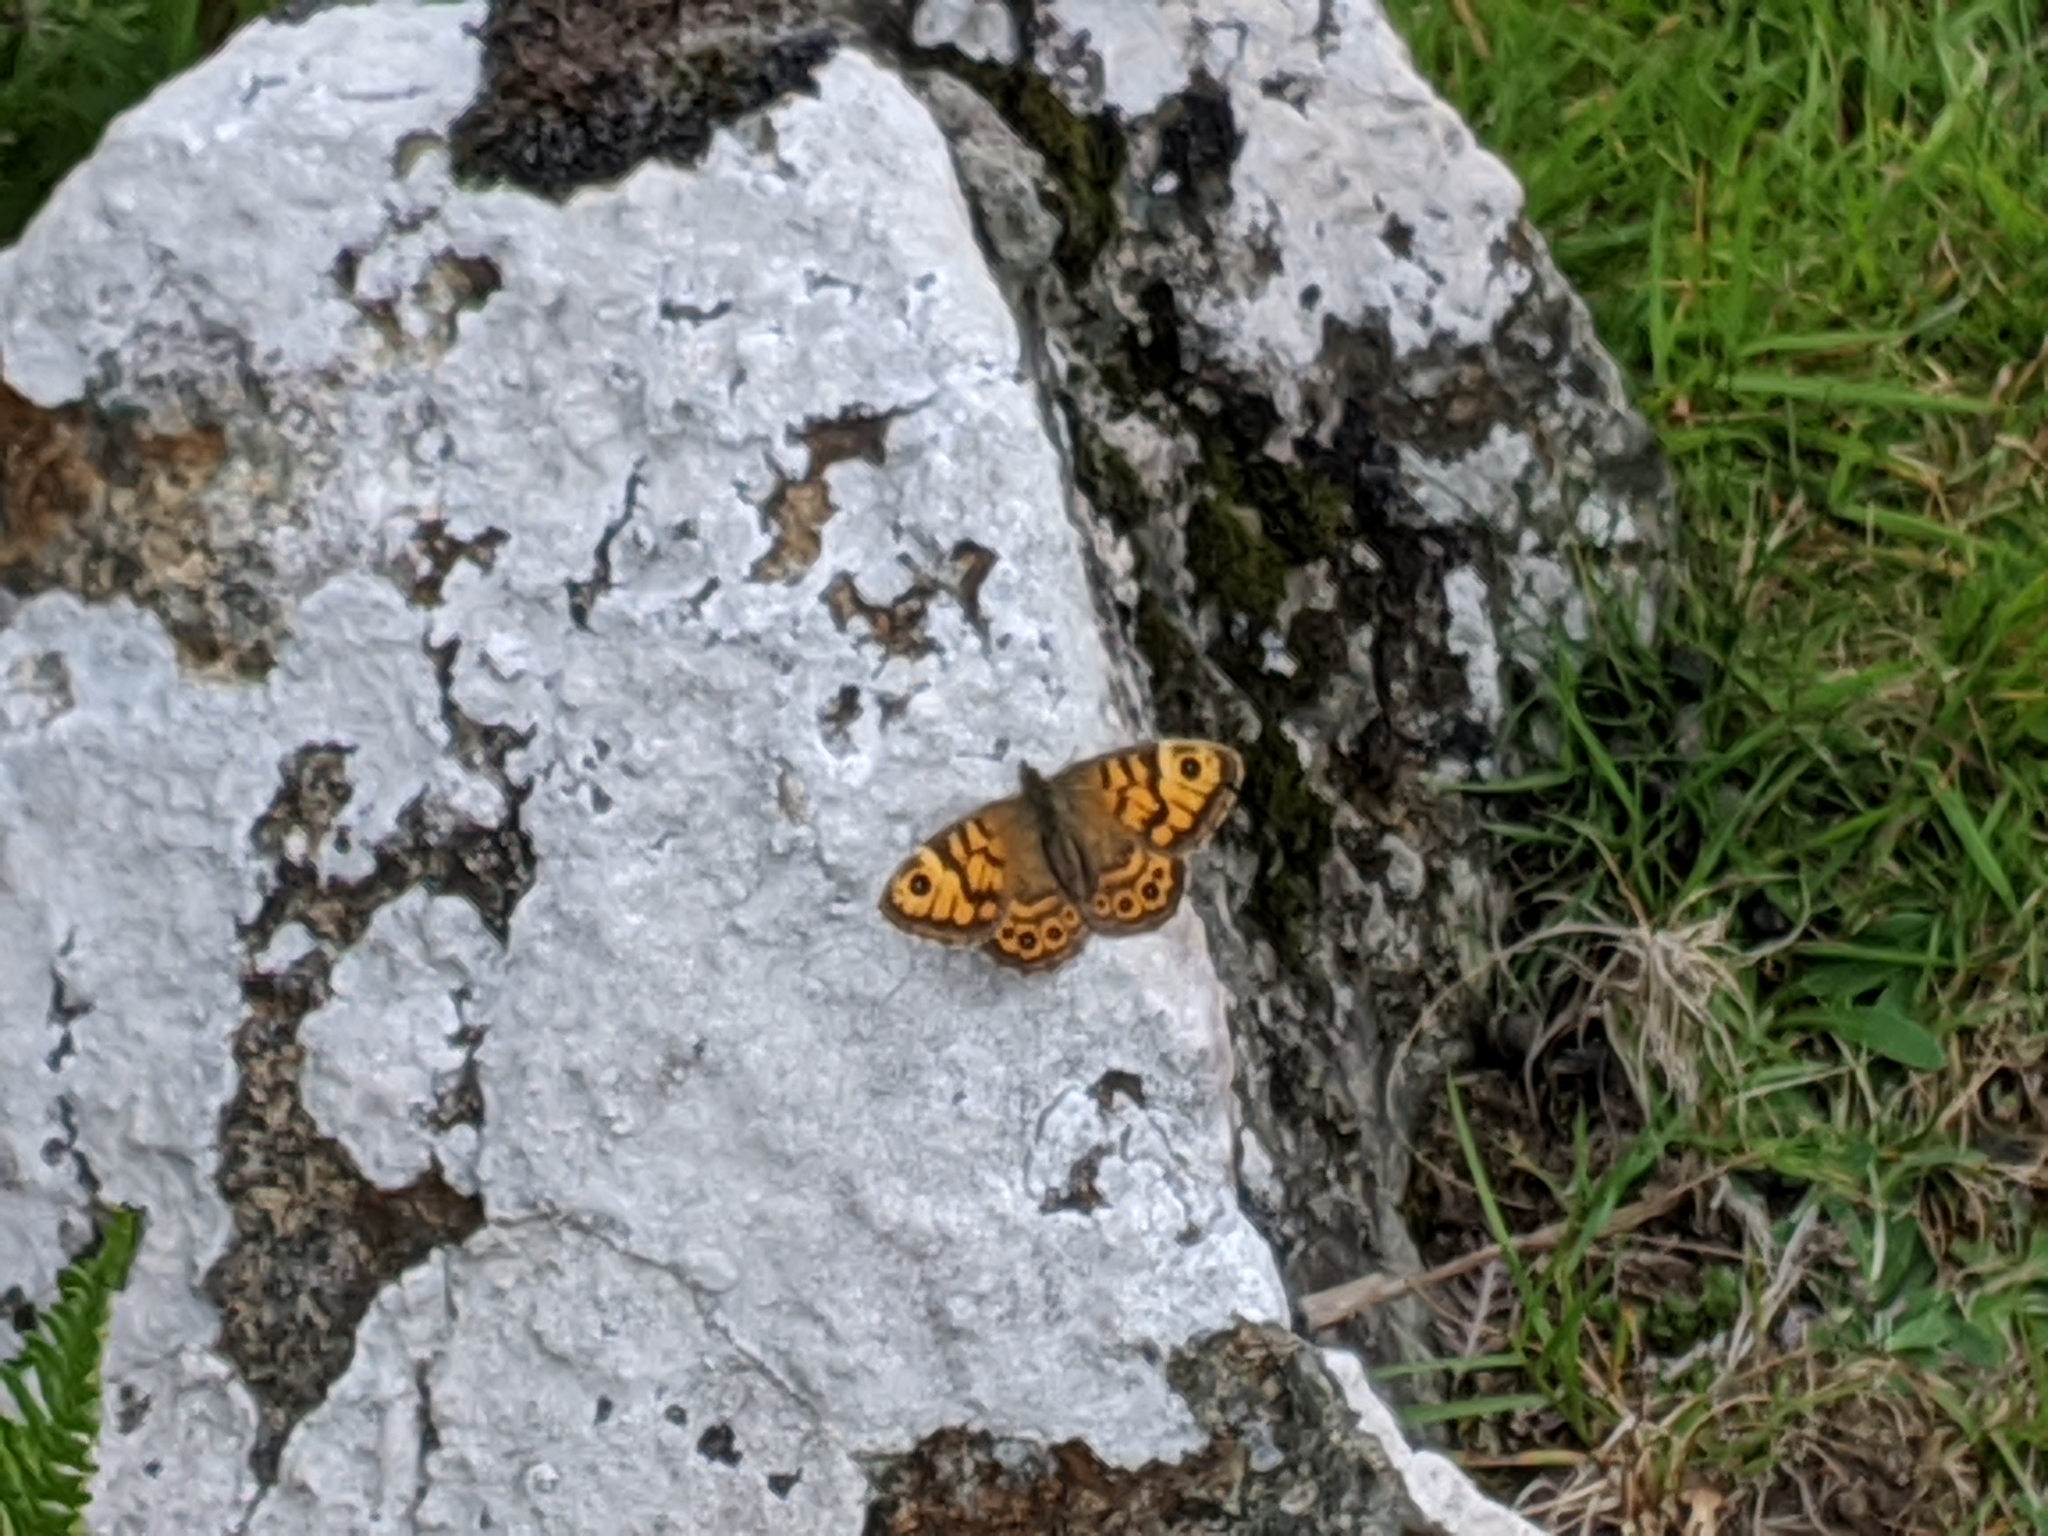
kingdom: Animalia
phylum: Arthropoda
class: Insecta
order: Lepidoptera
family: Nymphalidae
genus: Pararge
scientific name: Pararge Lasiommata megera
